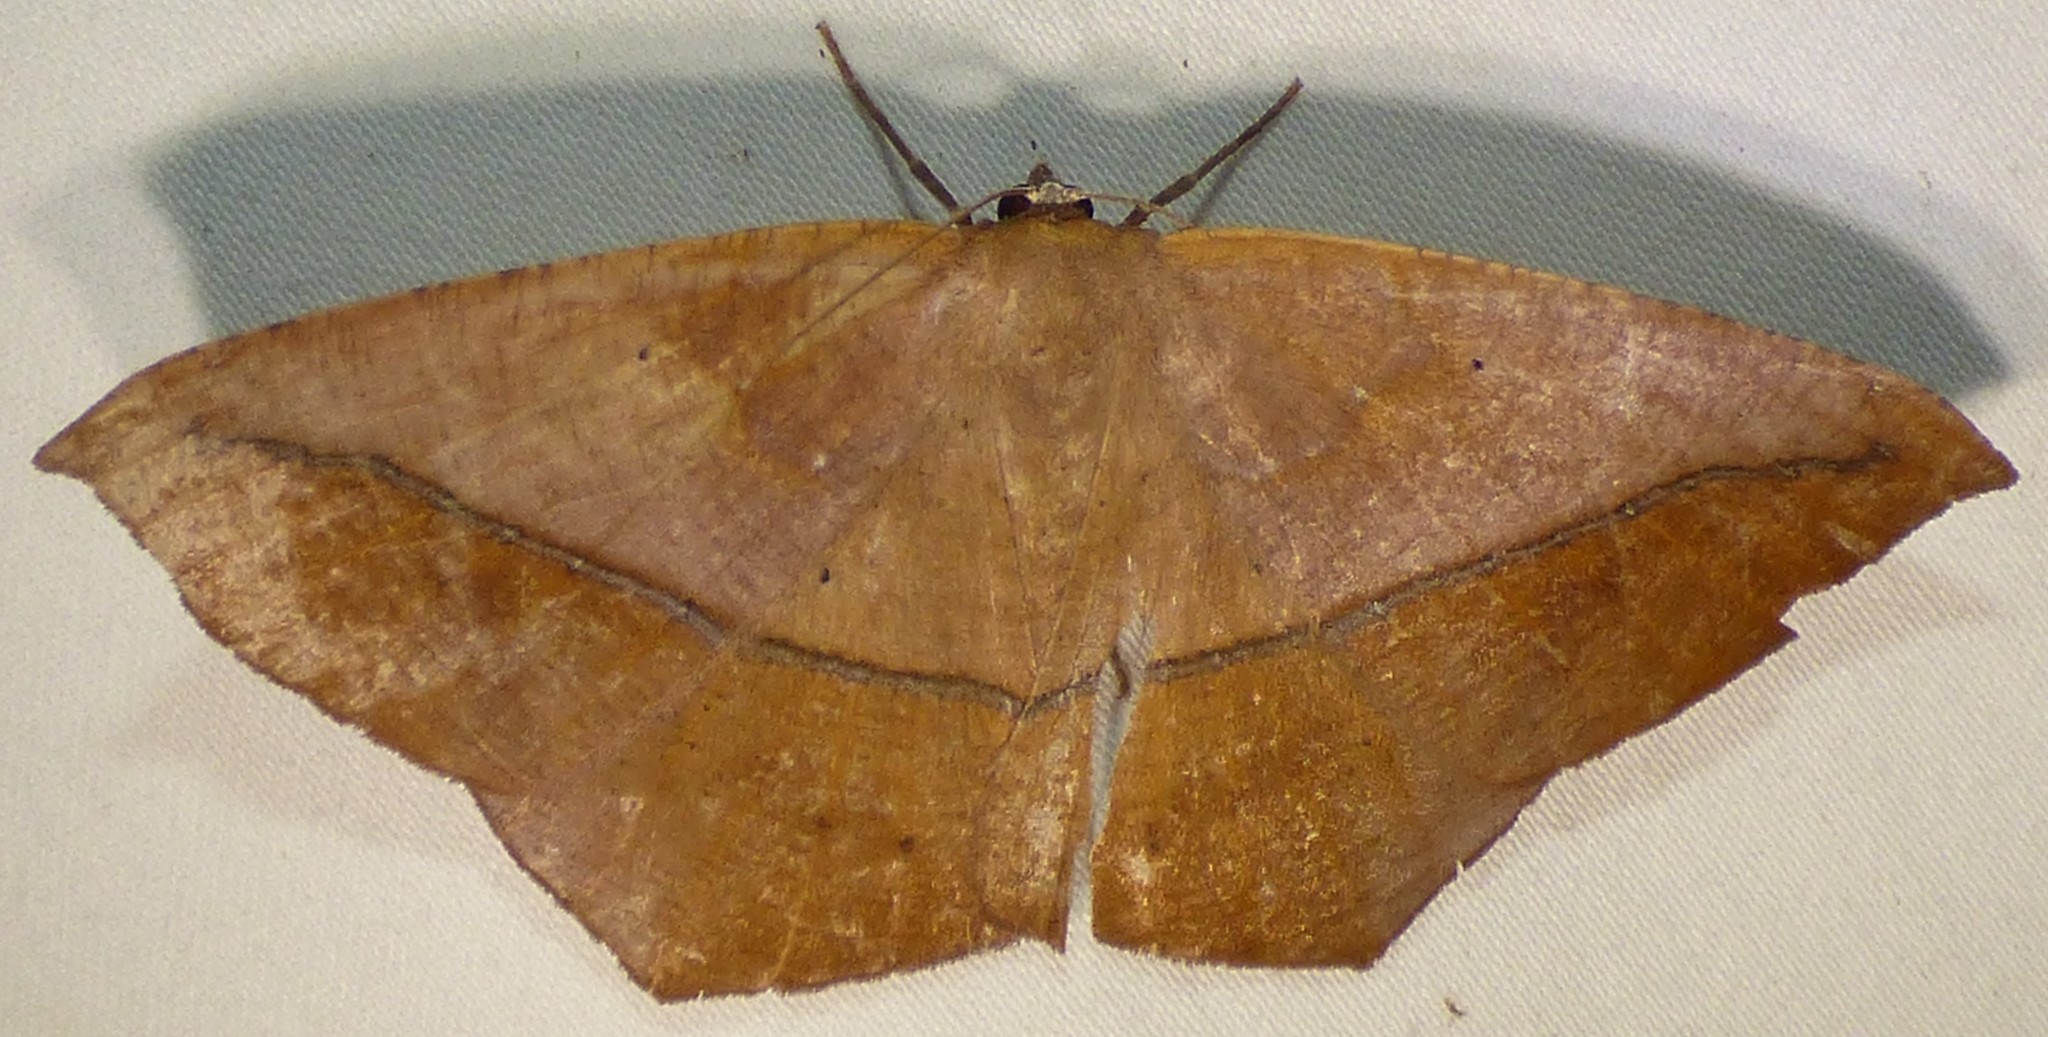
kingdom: Animalia
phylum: Arthropoda
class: Insecta
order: Lepidoptera
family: Geometridae
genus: Prochoerodes
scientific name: Prochoerodes lineola
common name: Large maple spanworm
